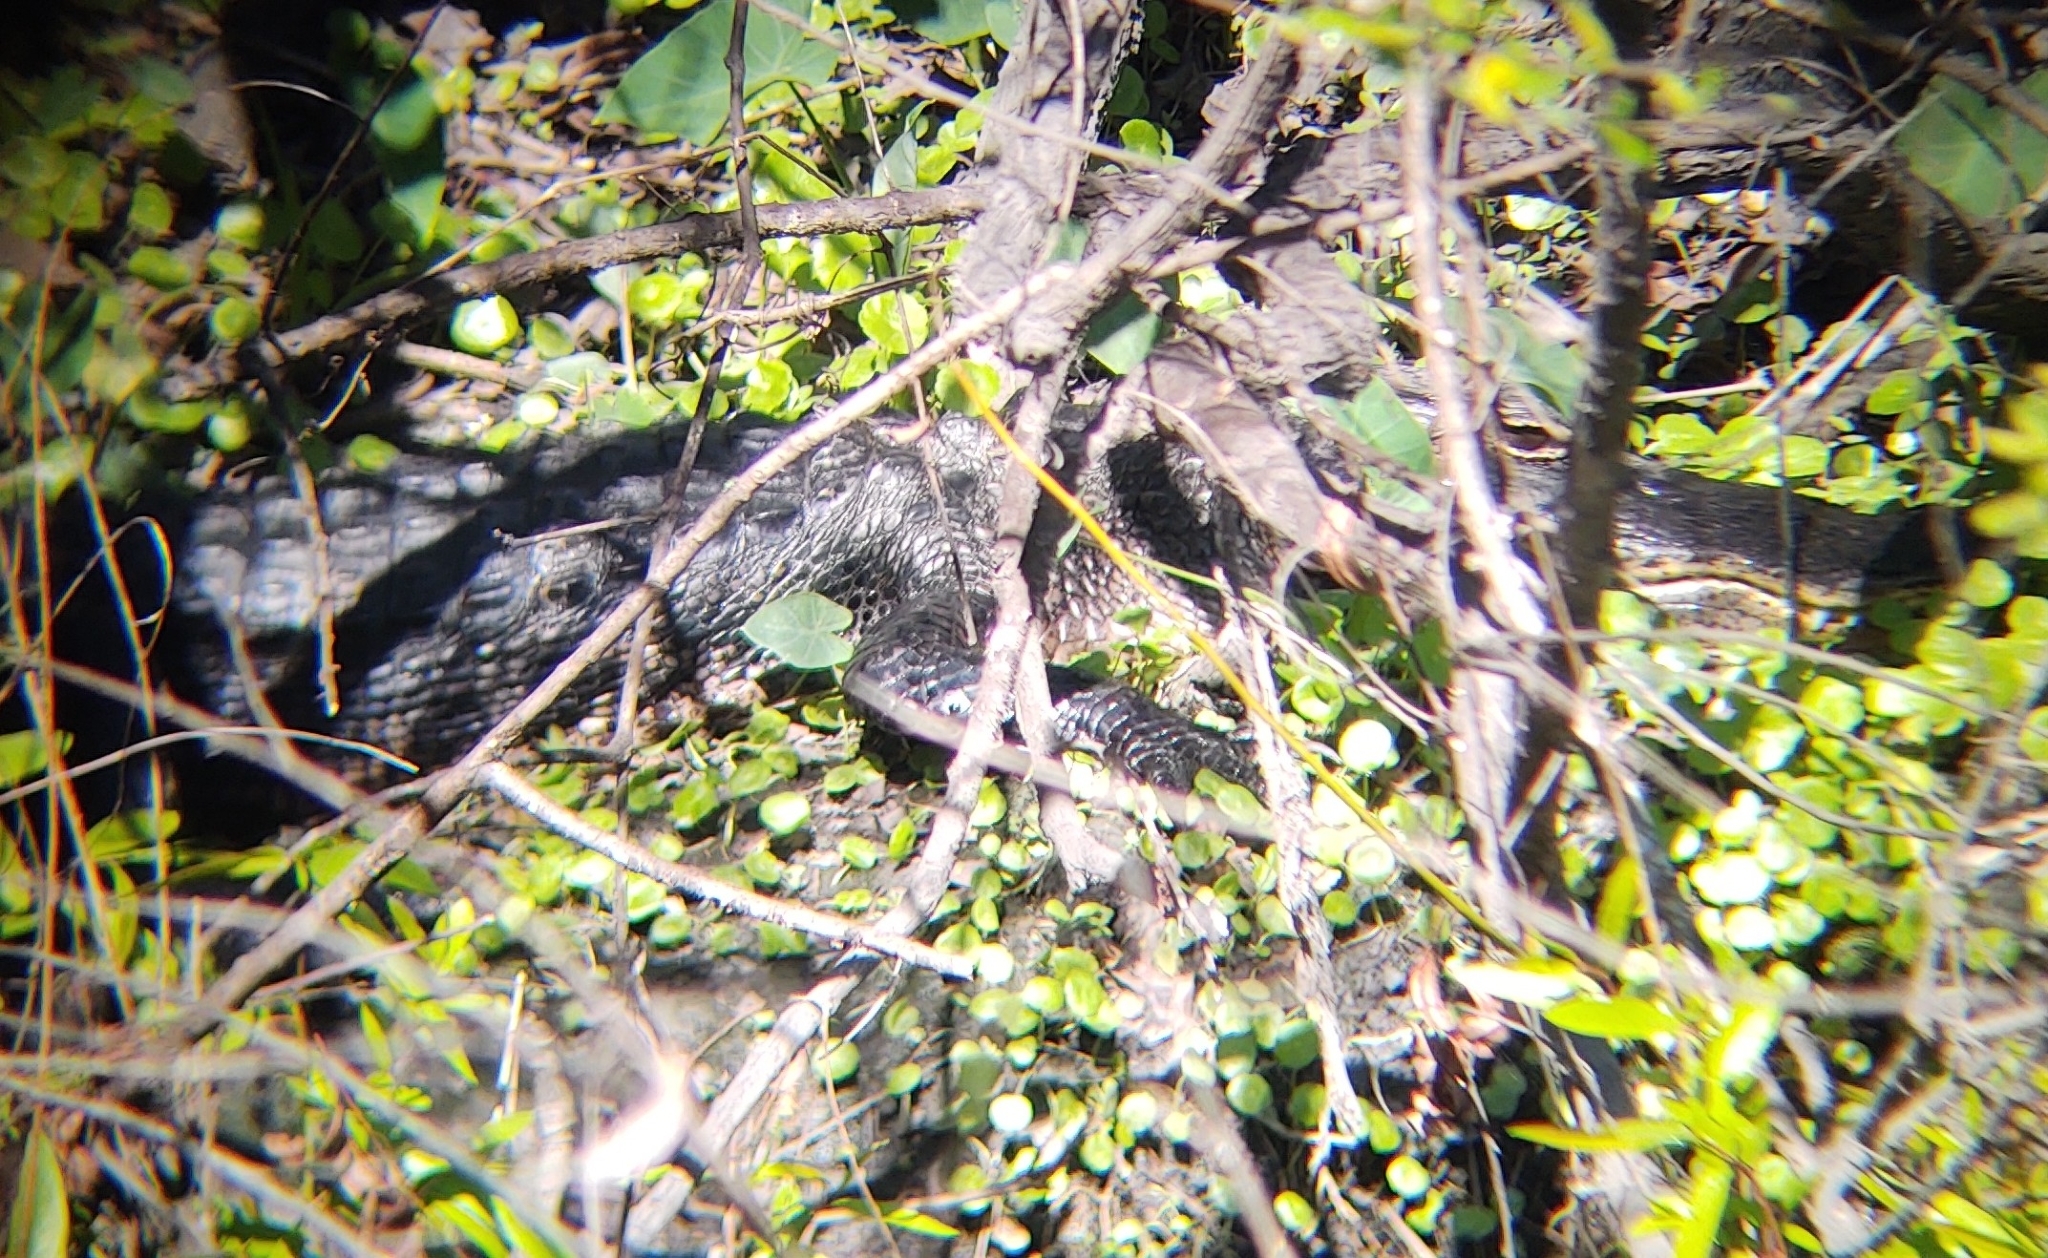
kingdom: Animalia
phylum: Chordata
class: Crocodylia
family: Alligatoridae
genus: Alligator
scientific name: Alligator mississippiensis
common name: American alligator
